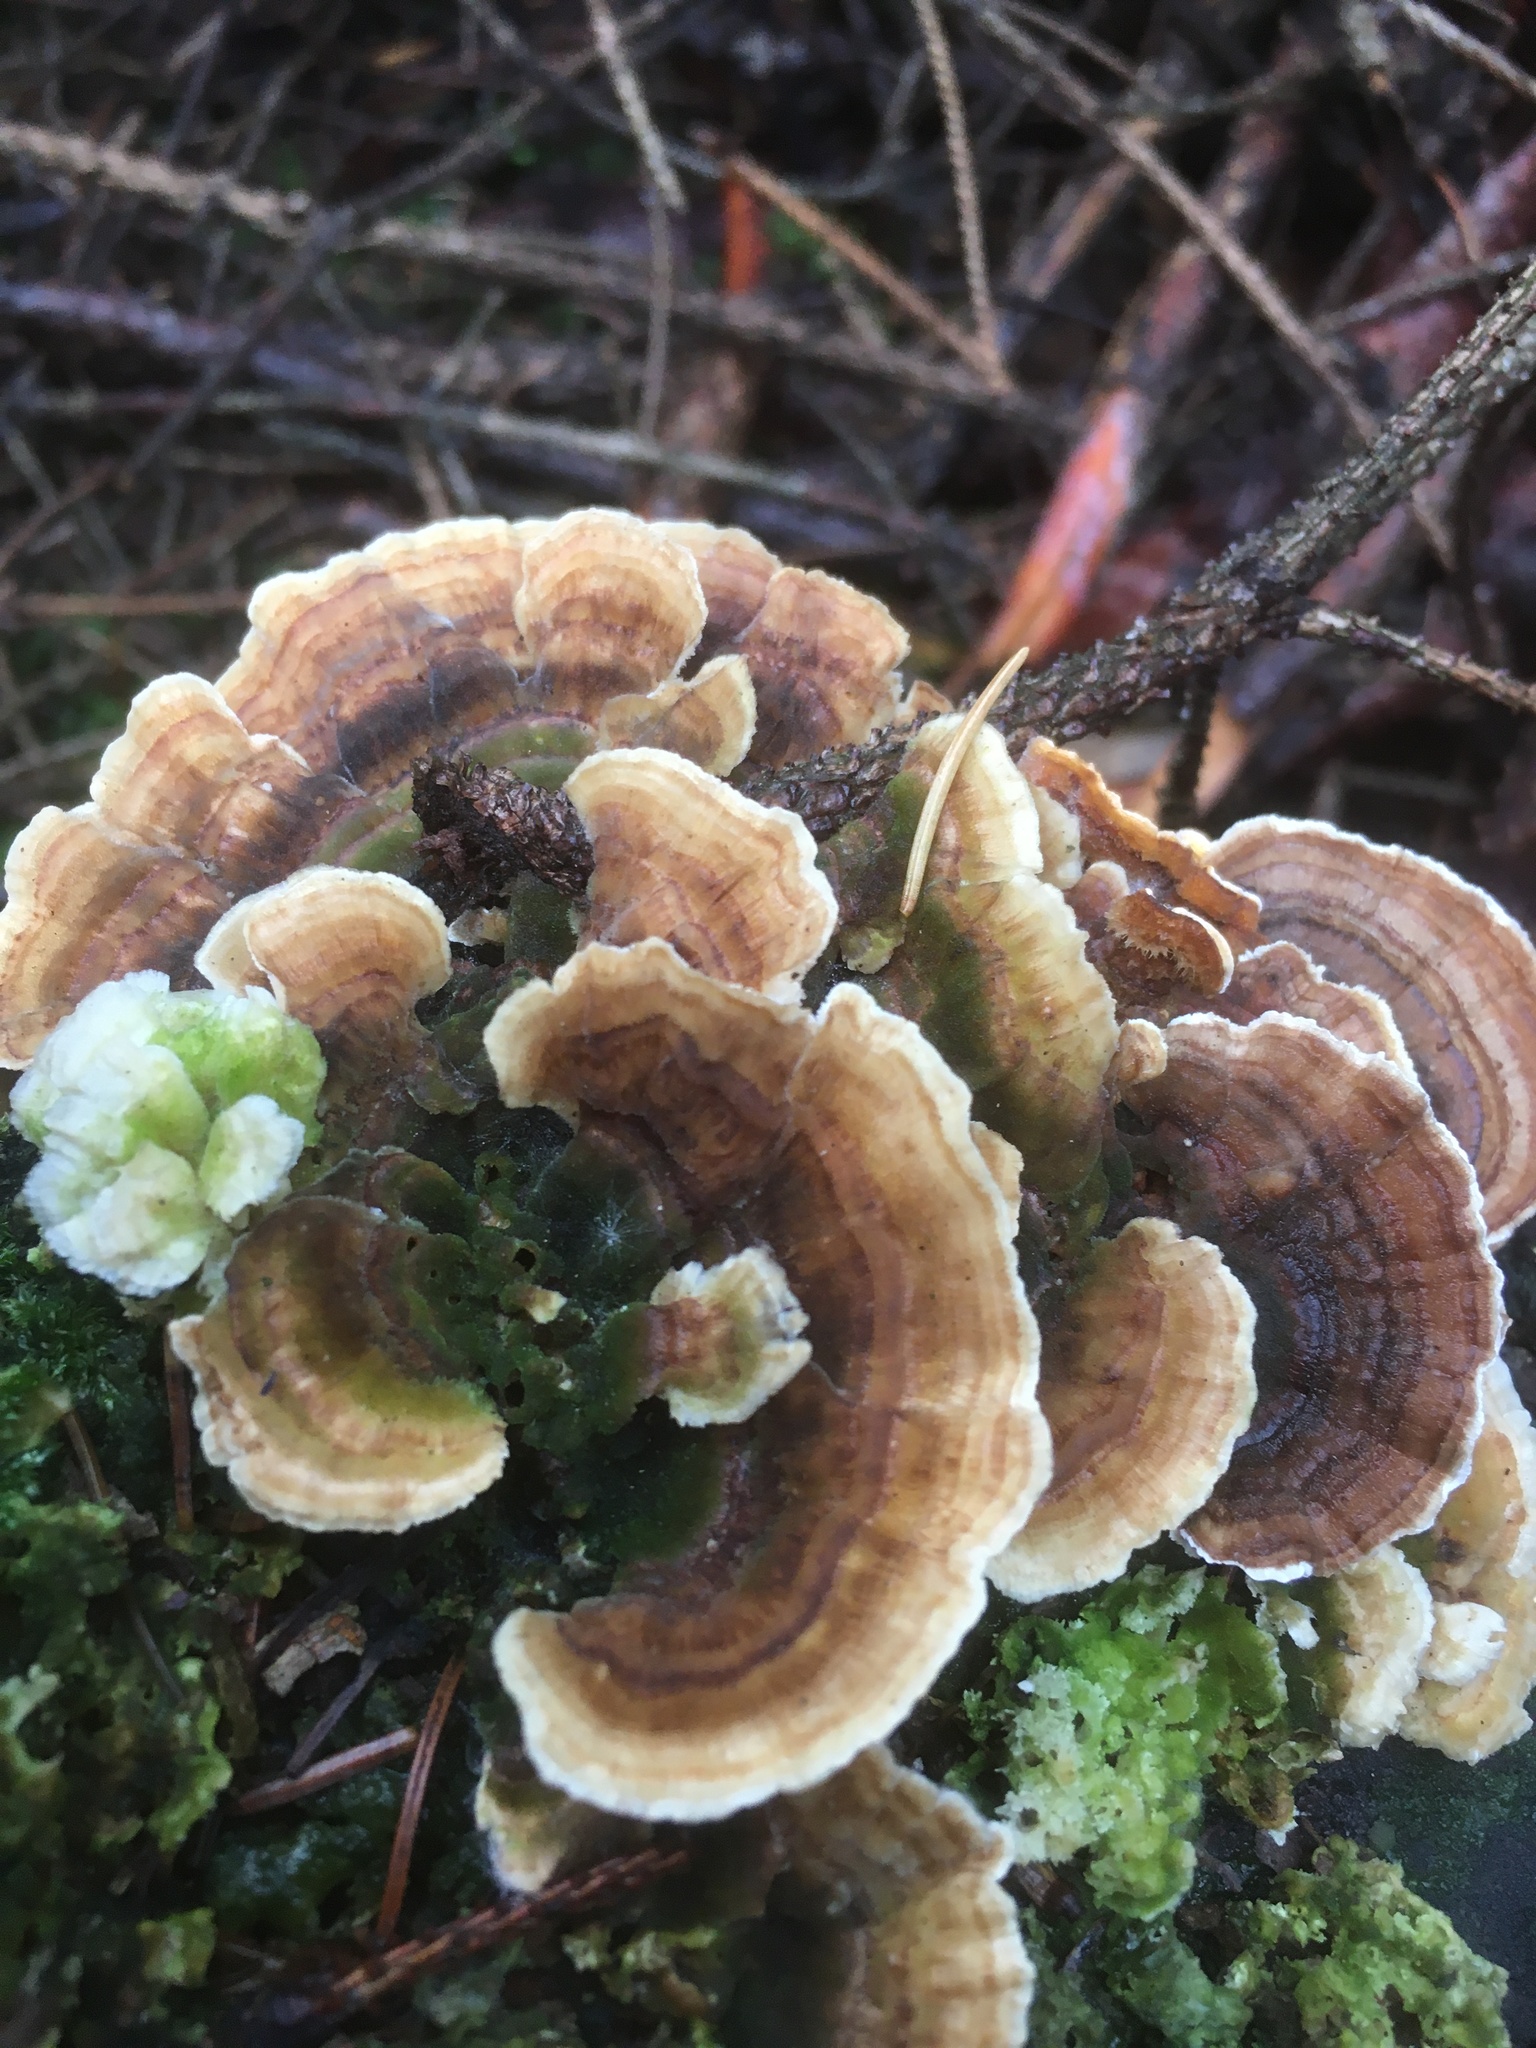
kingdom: Fungi
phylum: Basidiomycota
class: Agaricomycetes
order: Polyporales
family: Polyporaceae
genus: Trametes
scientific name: Trametes versicolor
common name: Turkeytail
